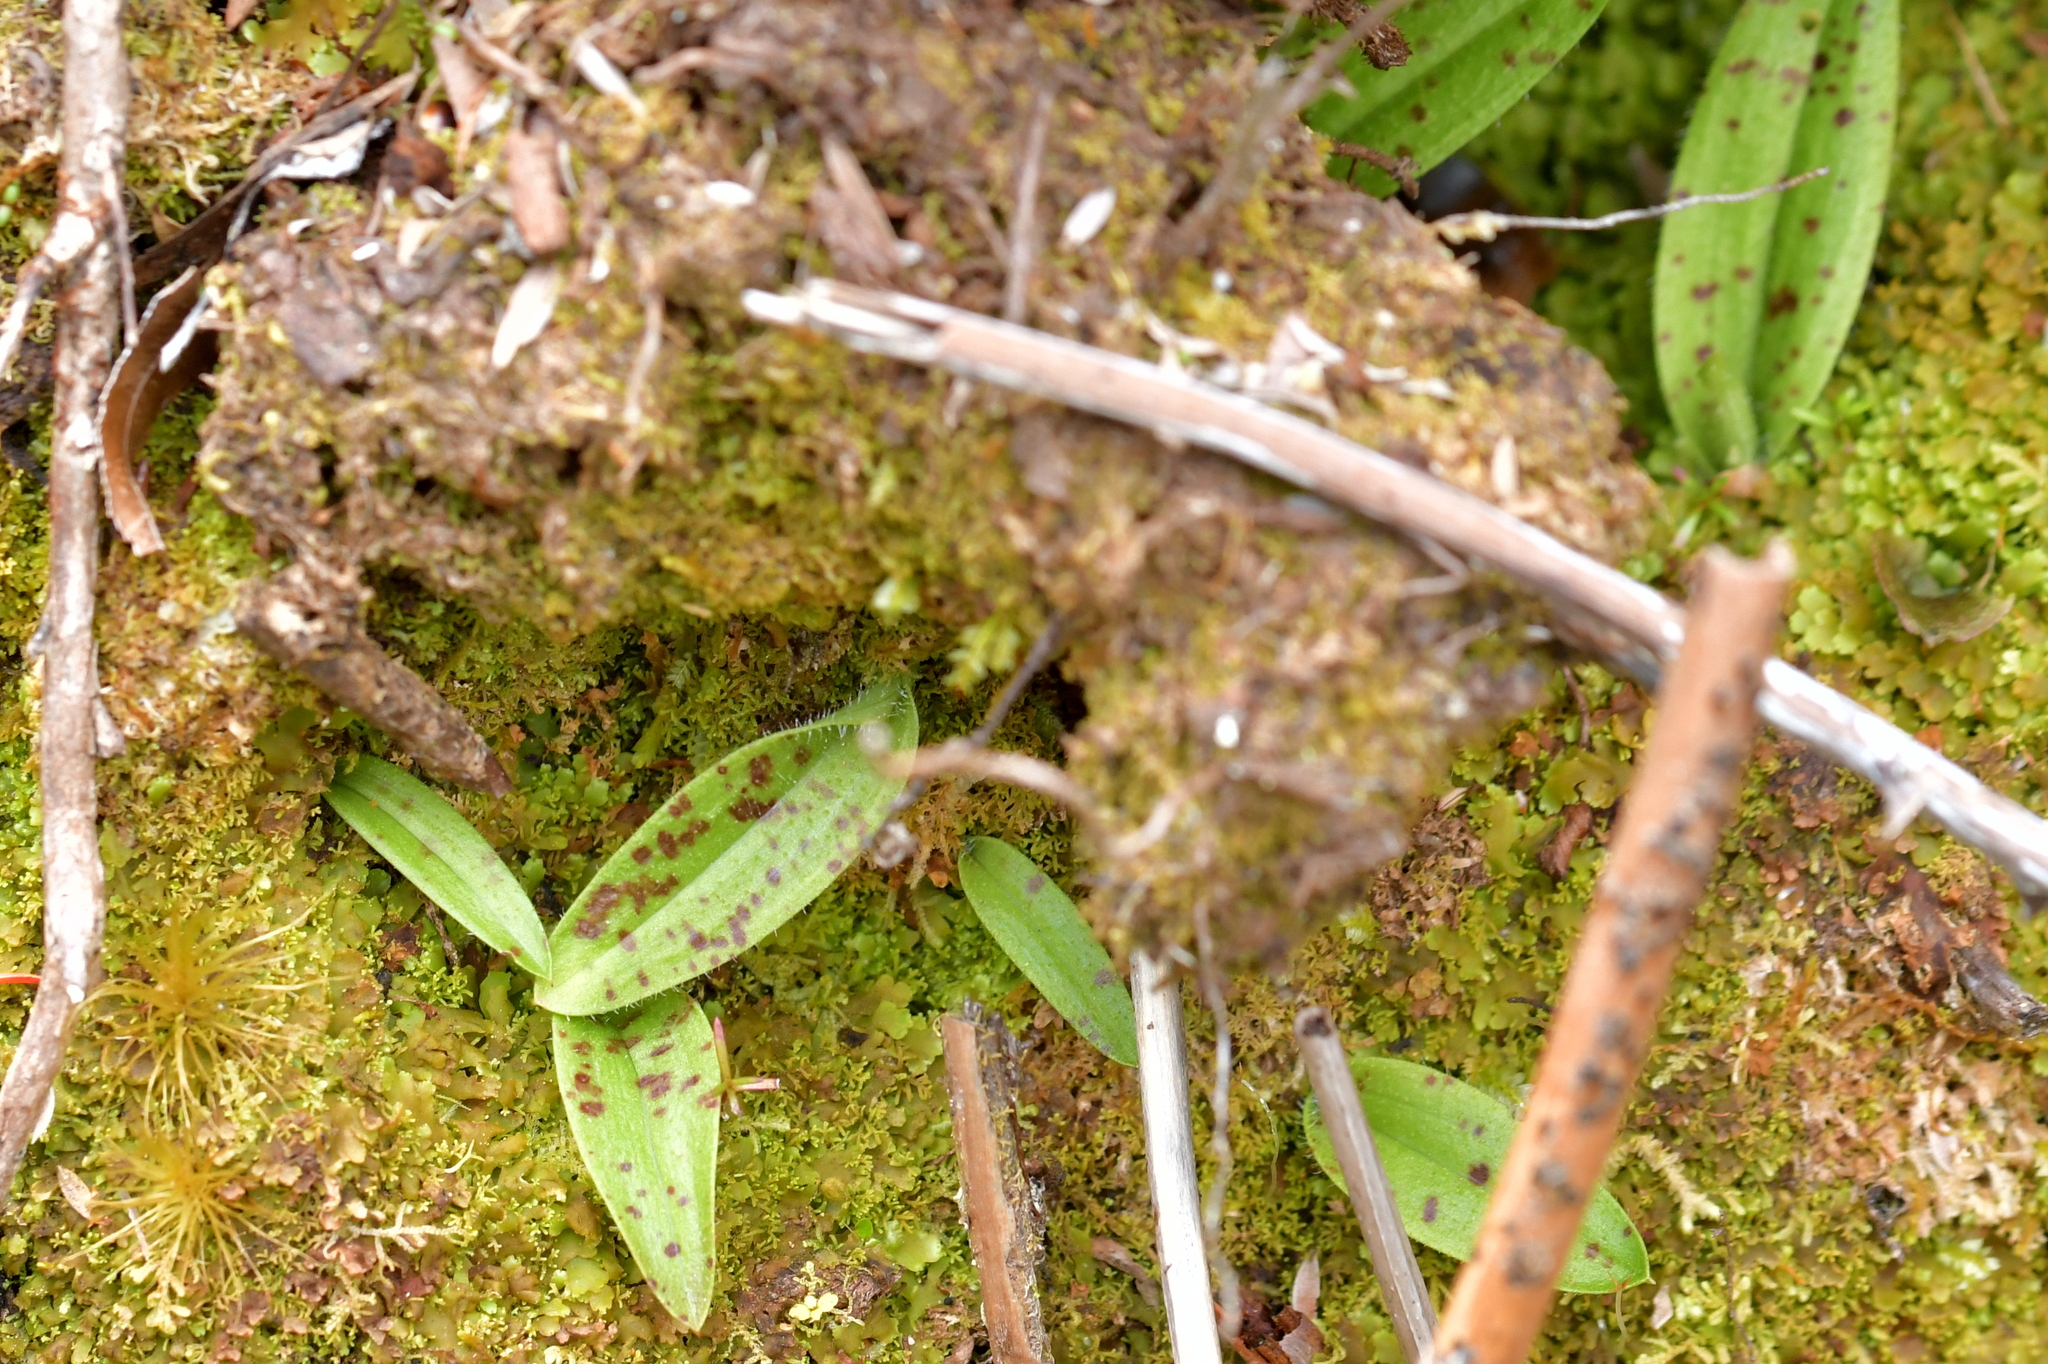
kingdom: Plantae
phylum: Tracheophyta
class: Liliopsida
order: Asparagales
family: Orchidaceae
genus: Aporostylis
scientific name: Aporostylis bifolia
